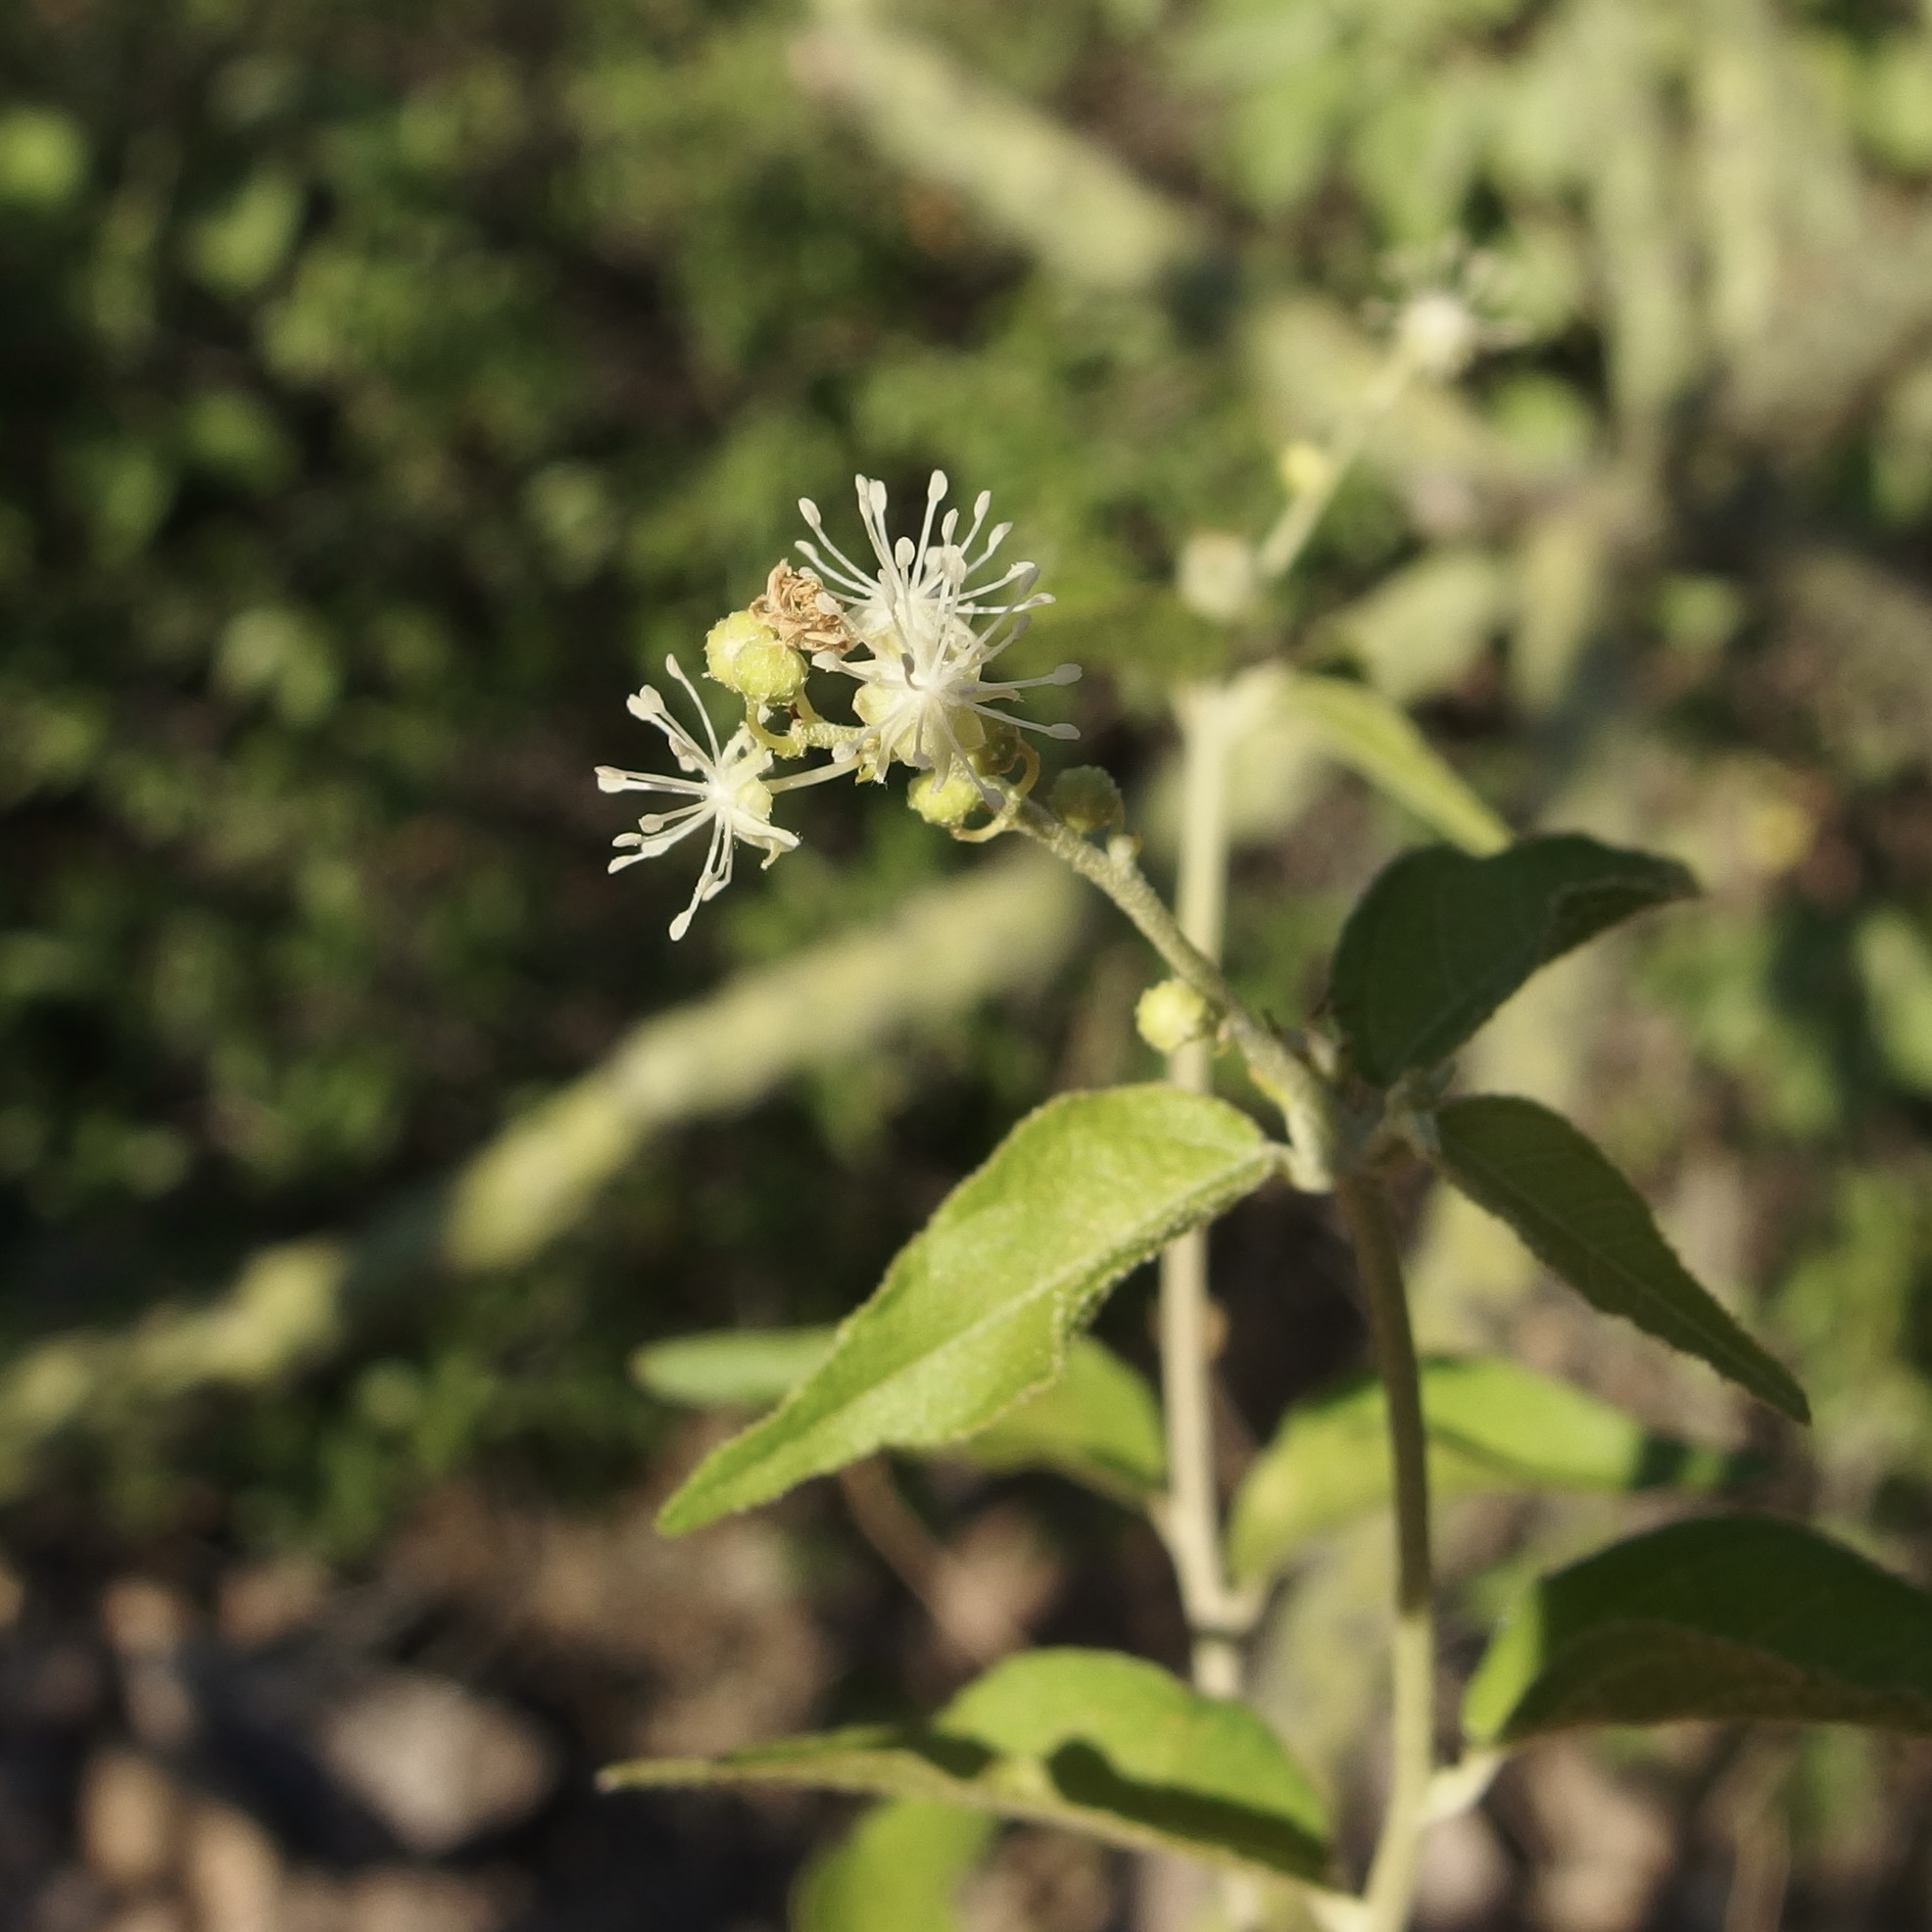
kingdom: Plantae
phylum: Tracheophyta
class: Magnoliopsida
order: Malpighiales
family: Euphorbiaceae
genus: Croton
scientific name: Croton sonorae
